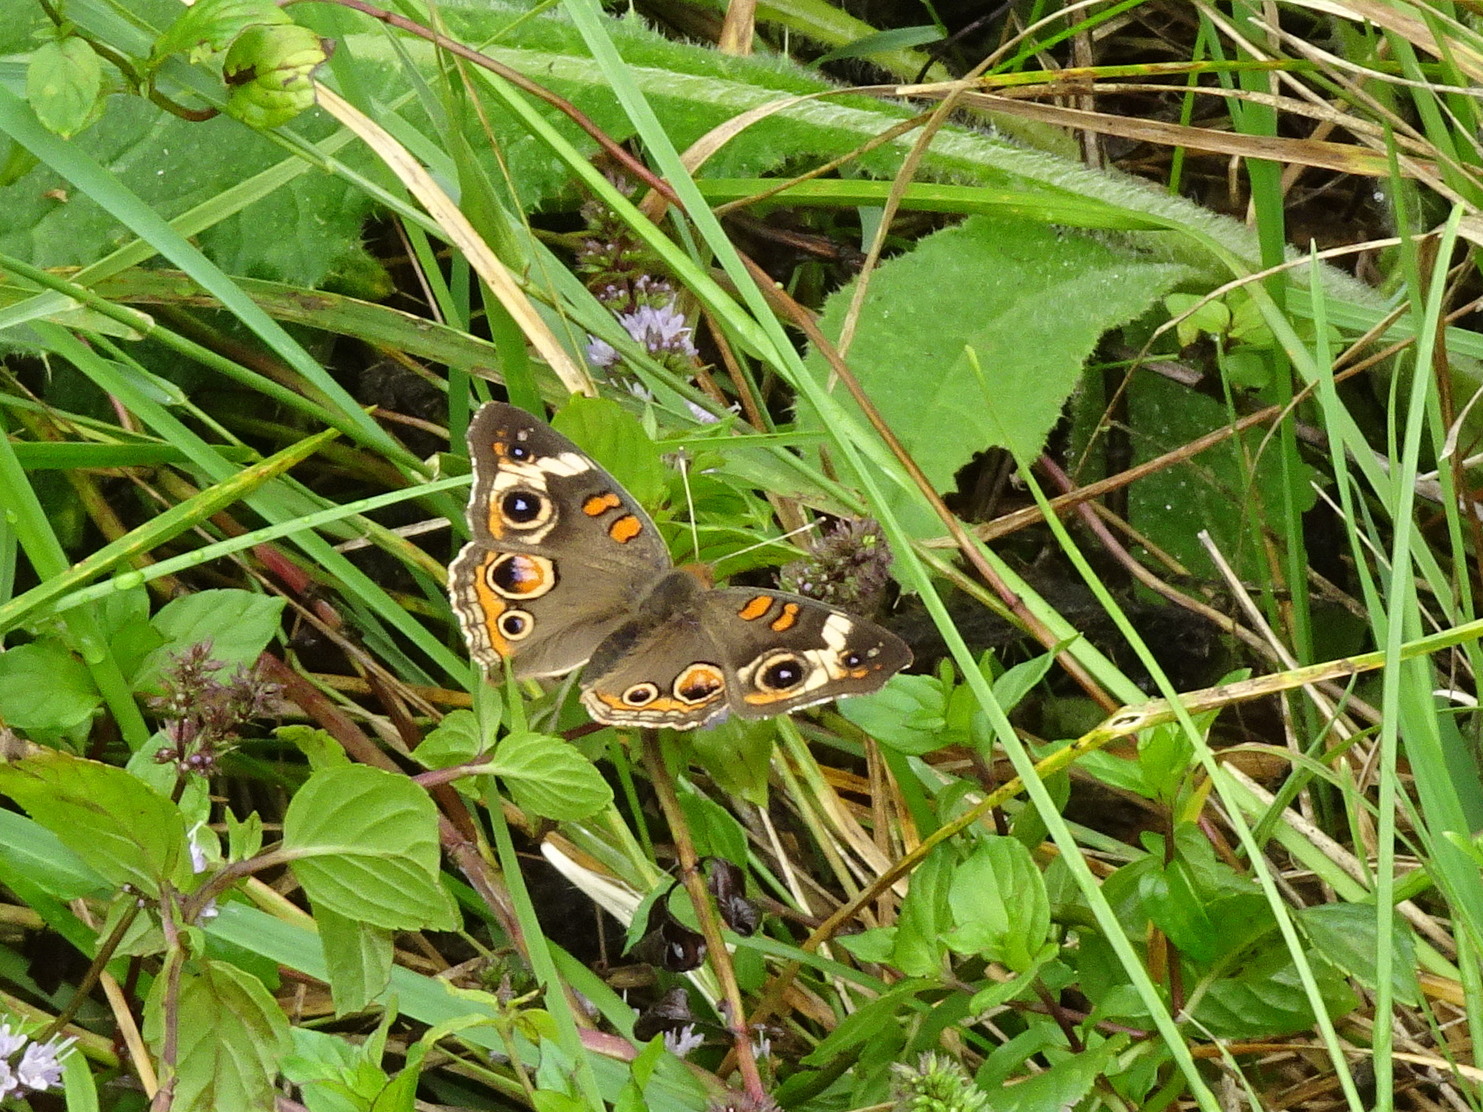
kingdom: Animalia
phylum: Arthropoda
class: Insecta
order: Lepidoptera
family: Nymphalidae
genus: Junonia
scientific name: Junonia coenia
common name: Common buckeye
